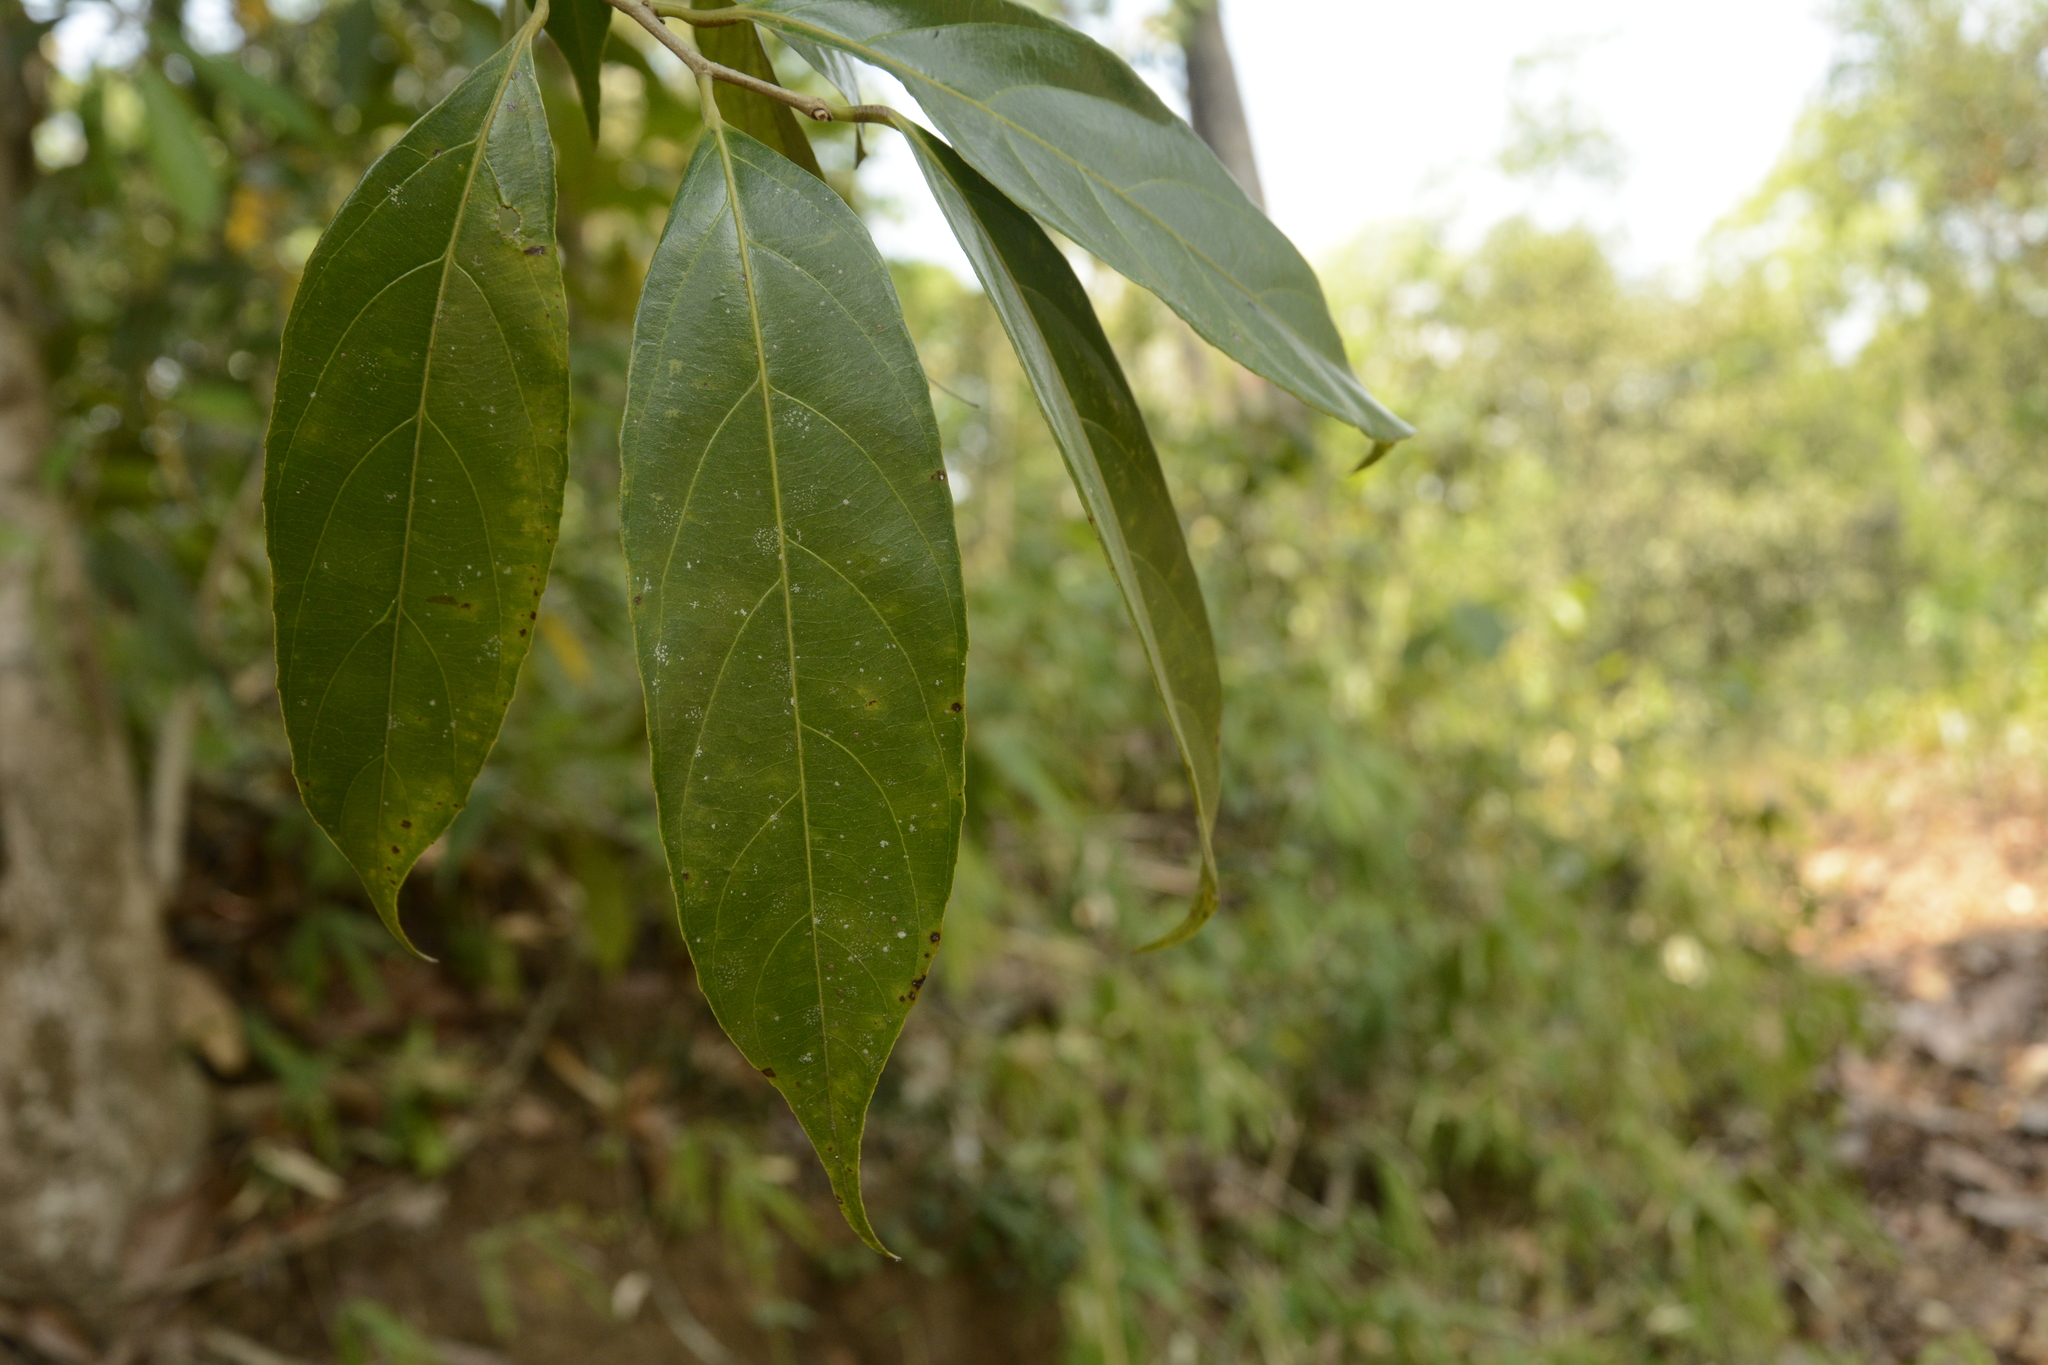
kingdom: Plantae
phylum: Tracheophyta
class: Magnoliopsida
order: Malpighiales
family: Achariaceae
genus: Hydnocarpus
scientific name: Hydnocarpus pentandrus
